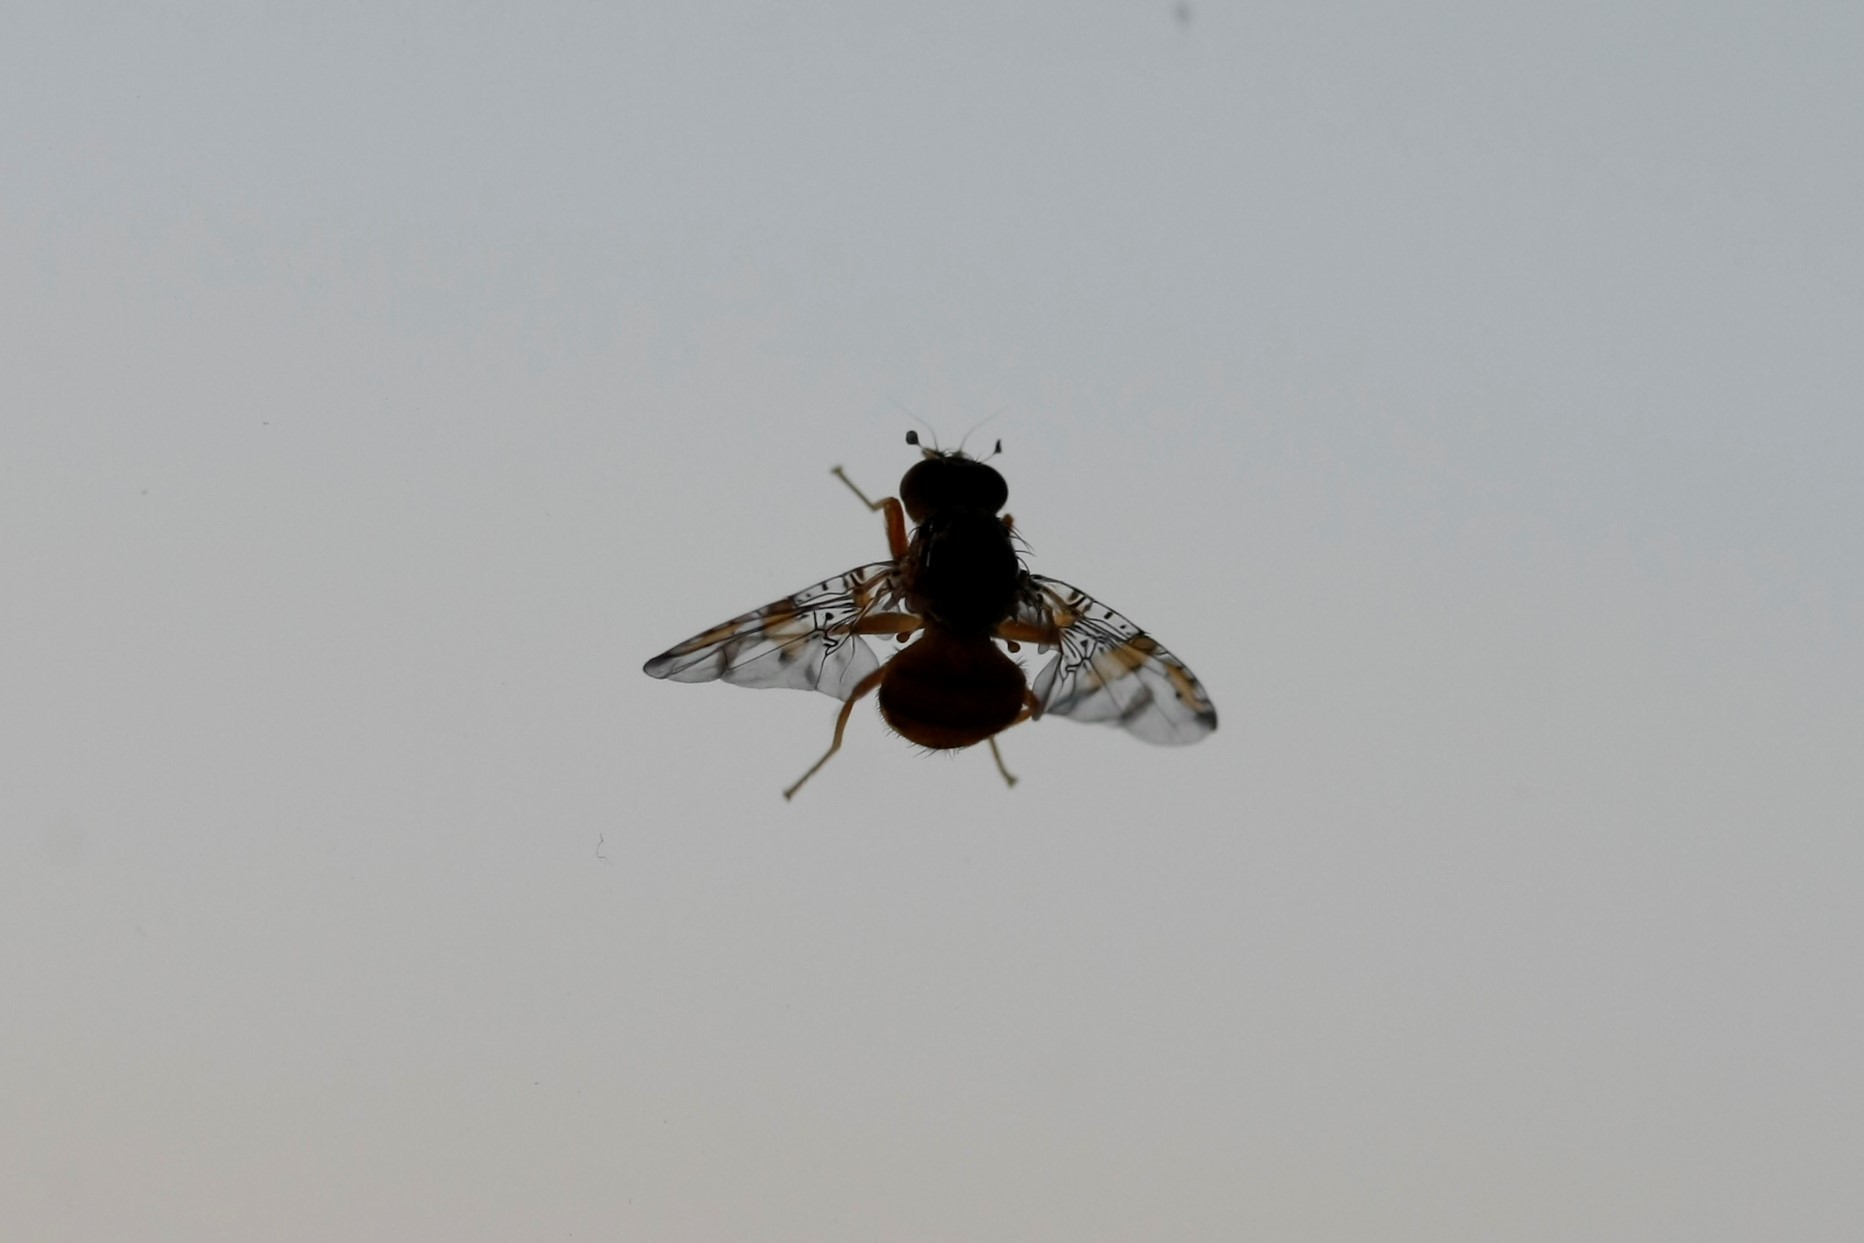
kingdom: Animalia
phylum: Arthropoda
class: Insecta
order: Diptera
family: Tephritidae
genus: Ceratitis
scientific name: Ceratitis capitata
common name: Mediterranean fruit fly
